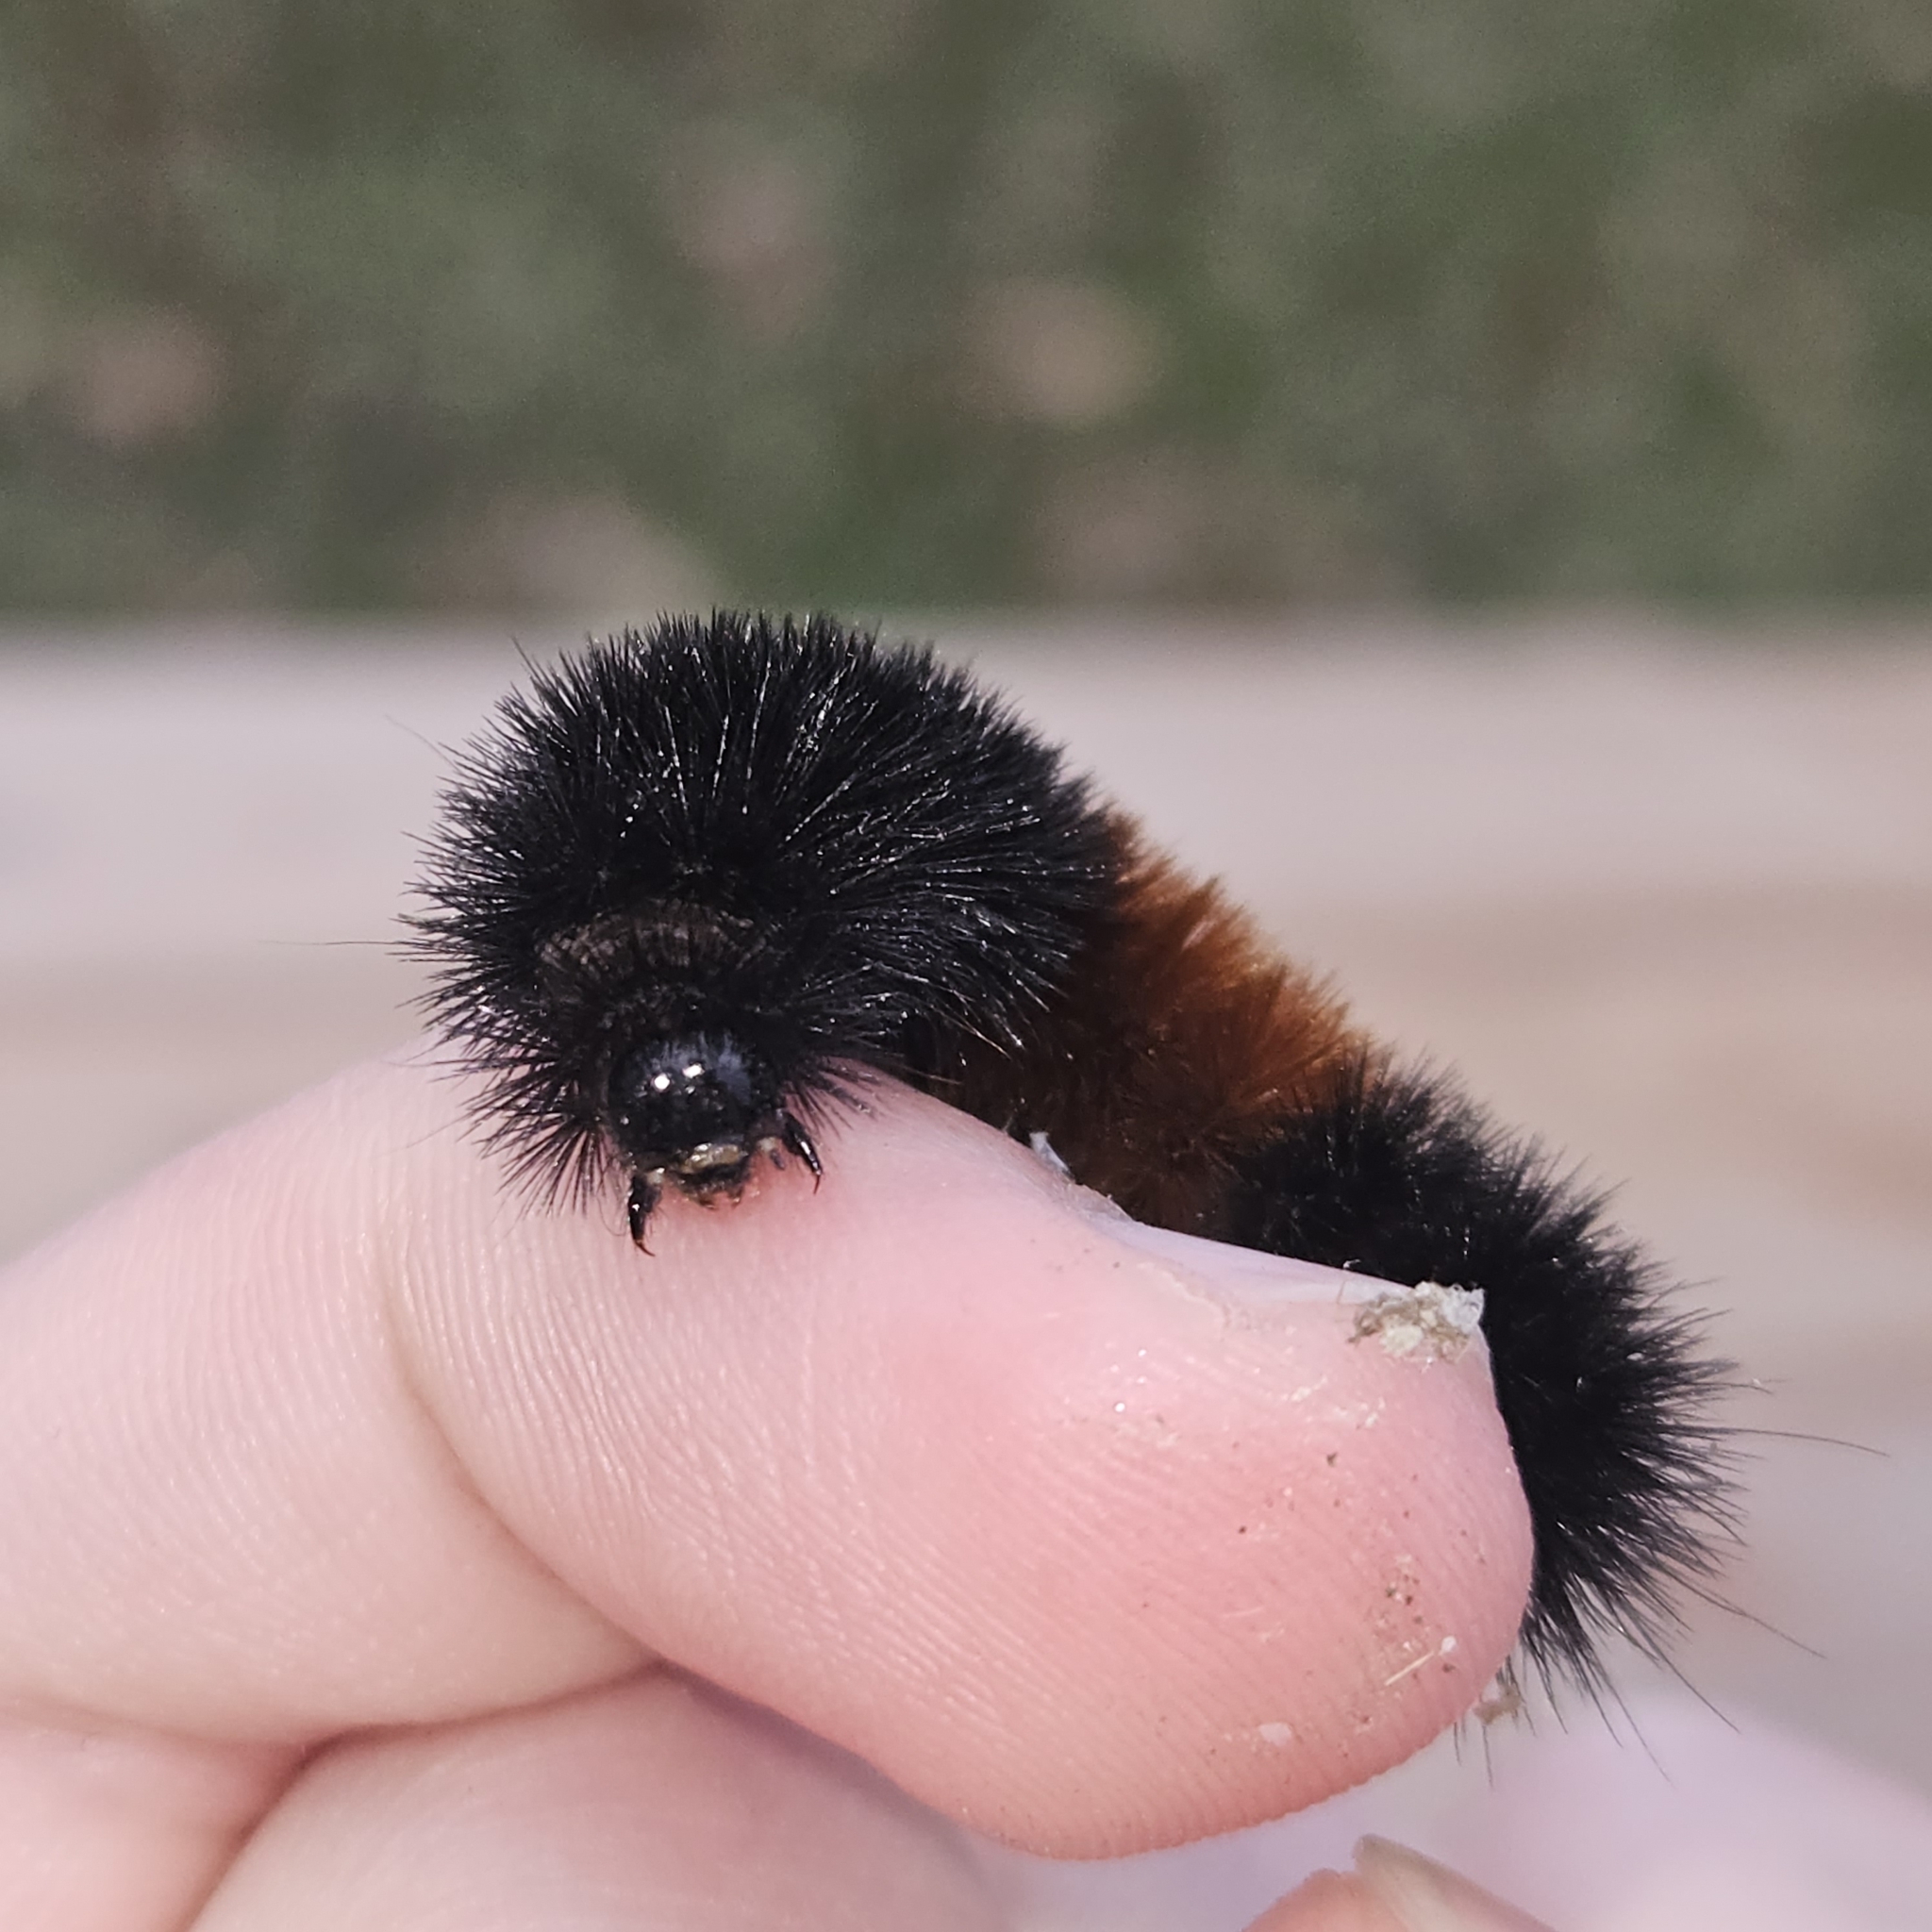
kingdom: Animalia
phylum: Arthropoda
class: Insecta
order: Lepidoptera
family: Erebidae
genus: Pyrrharctia
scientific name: Pyrrharctia isabella
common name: Isabella tiger moth
